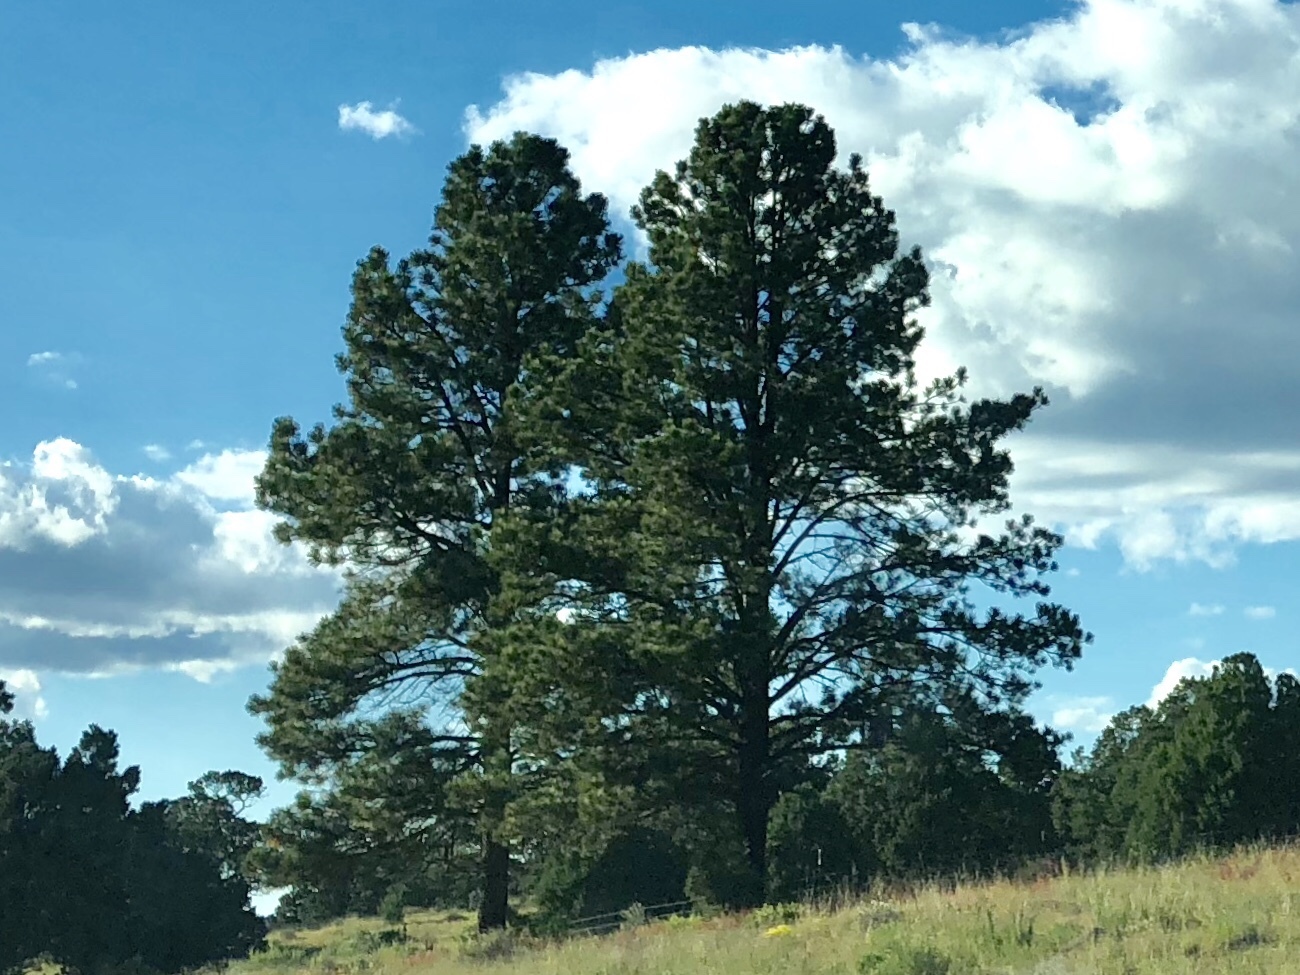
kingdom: Plantae
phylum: Tracheophyta
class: Pinopsida
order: Pinales
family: Pinaceae
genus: Pinus
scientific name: Pinus ponderosa
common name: Western yellow-pine
